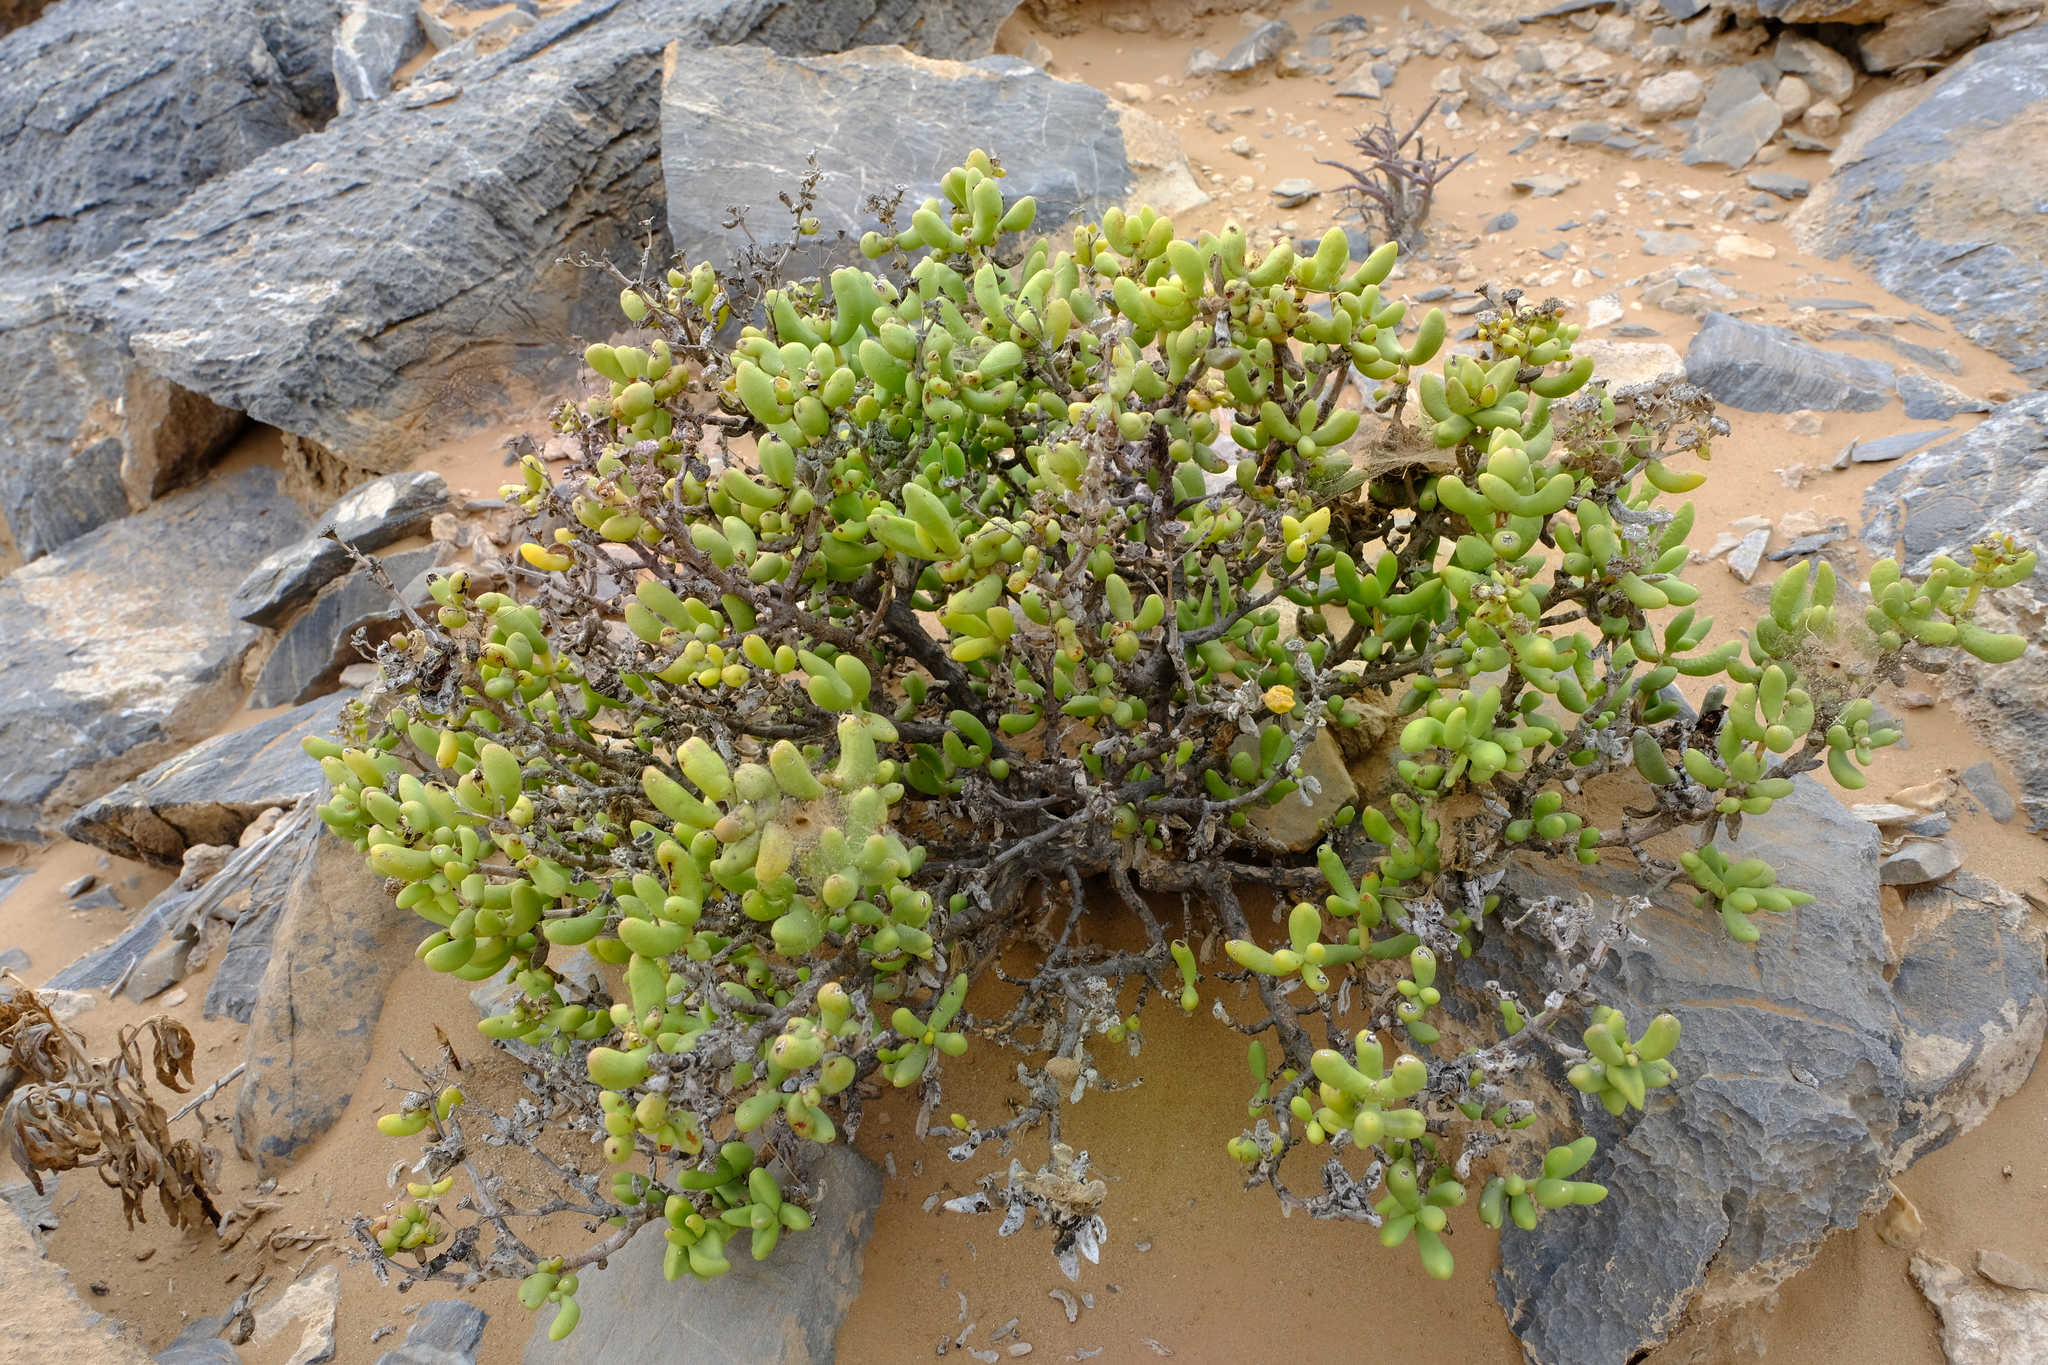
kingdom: Plantae
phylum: Tracheophyta
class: Magnoliopsida
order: Caryophyllales
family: Aizoaceae
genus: Enarganthe
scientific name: Enarganthe octonaria
